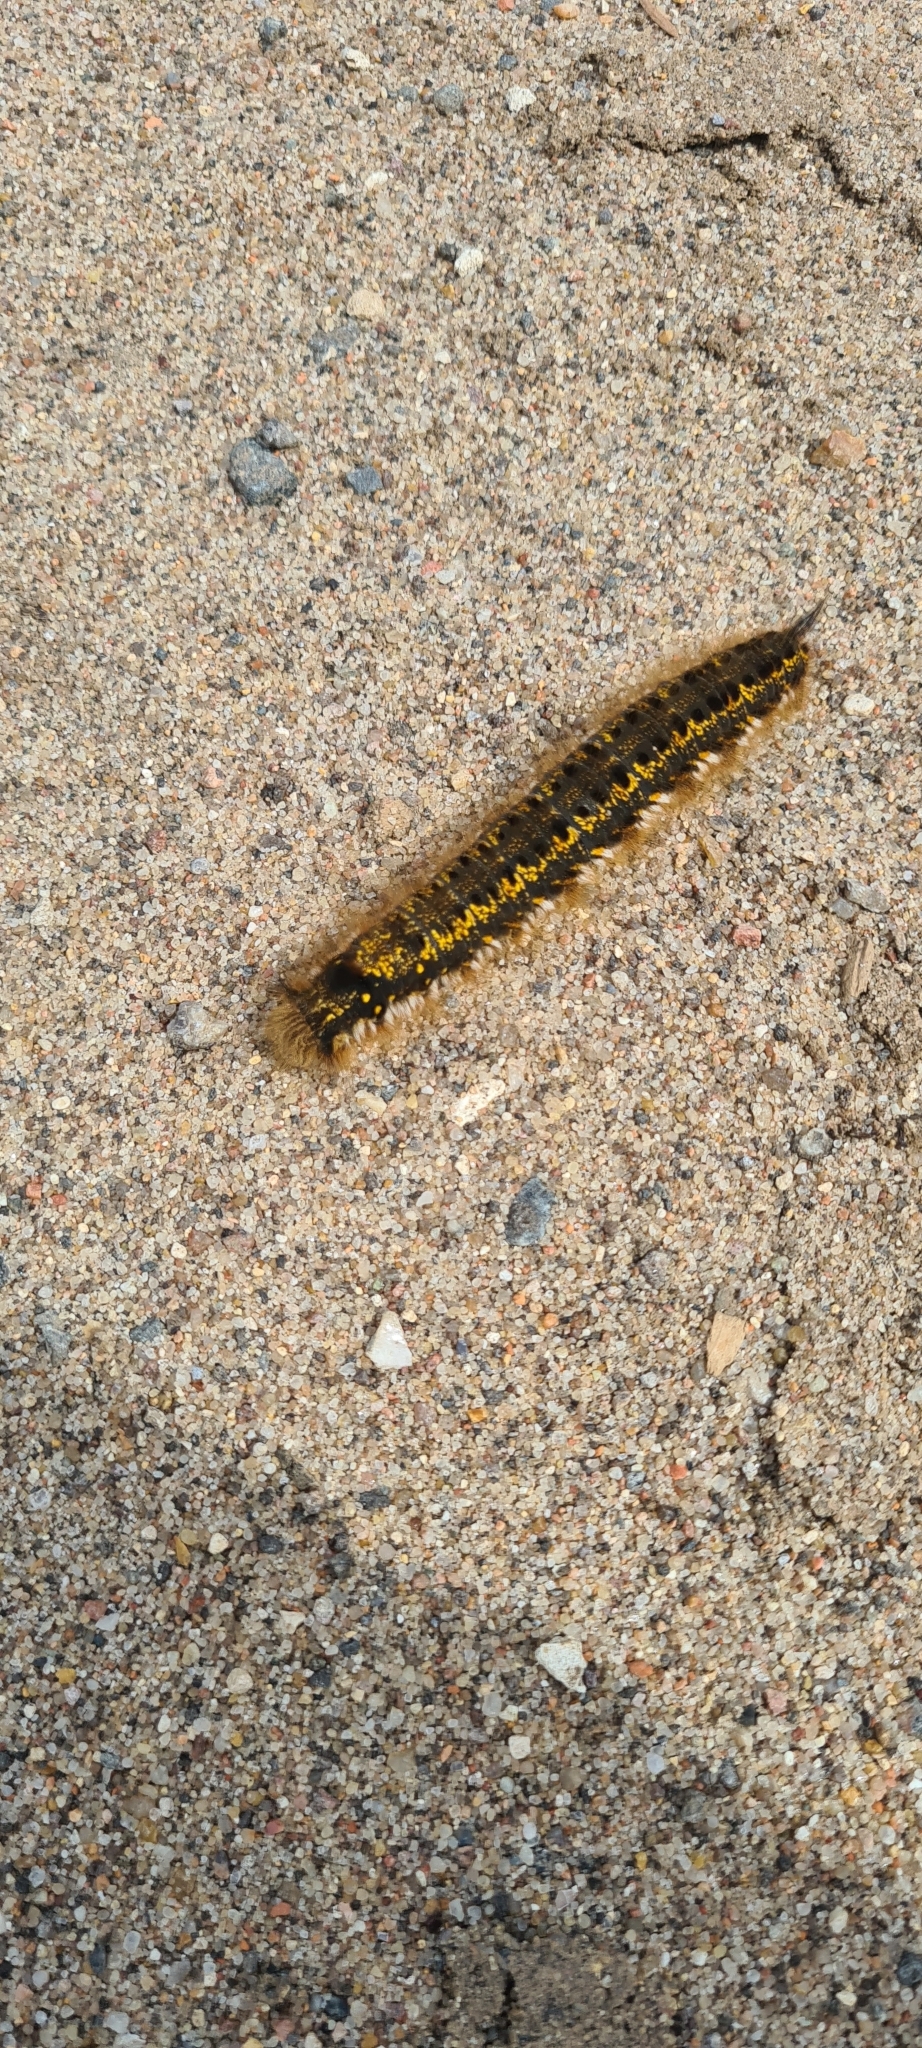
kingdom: Animalia
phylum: Arthropoda
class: Insecta
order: Lepidoptera
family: Lasiocampidae
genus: Euthrix
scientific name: Euthrix potatoria
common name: Drinker
